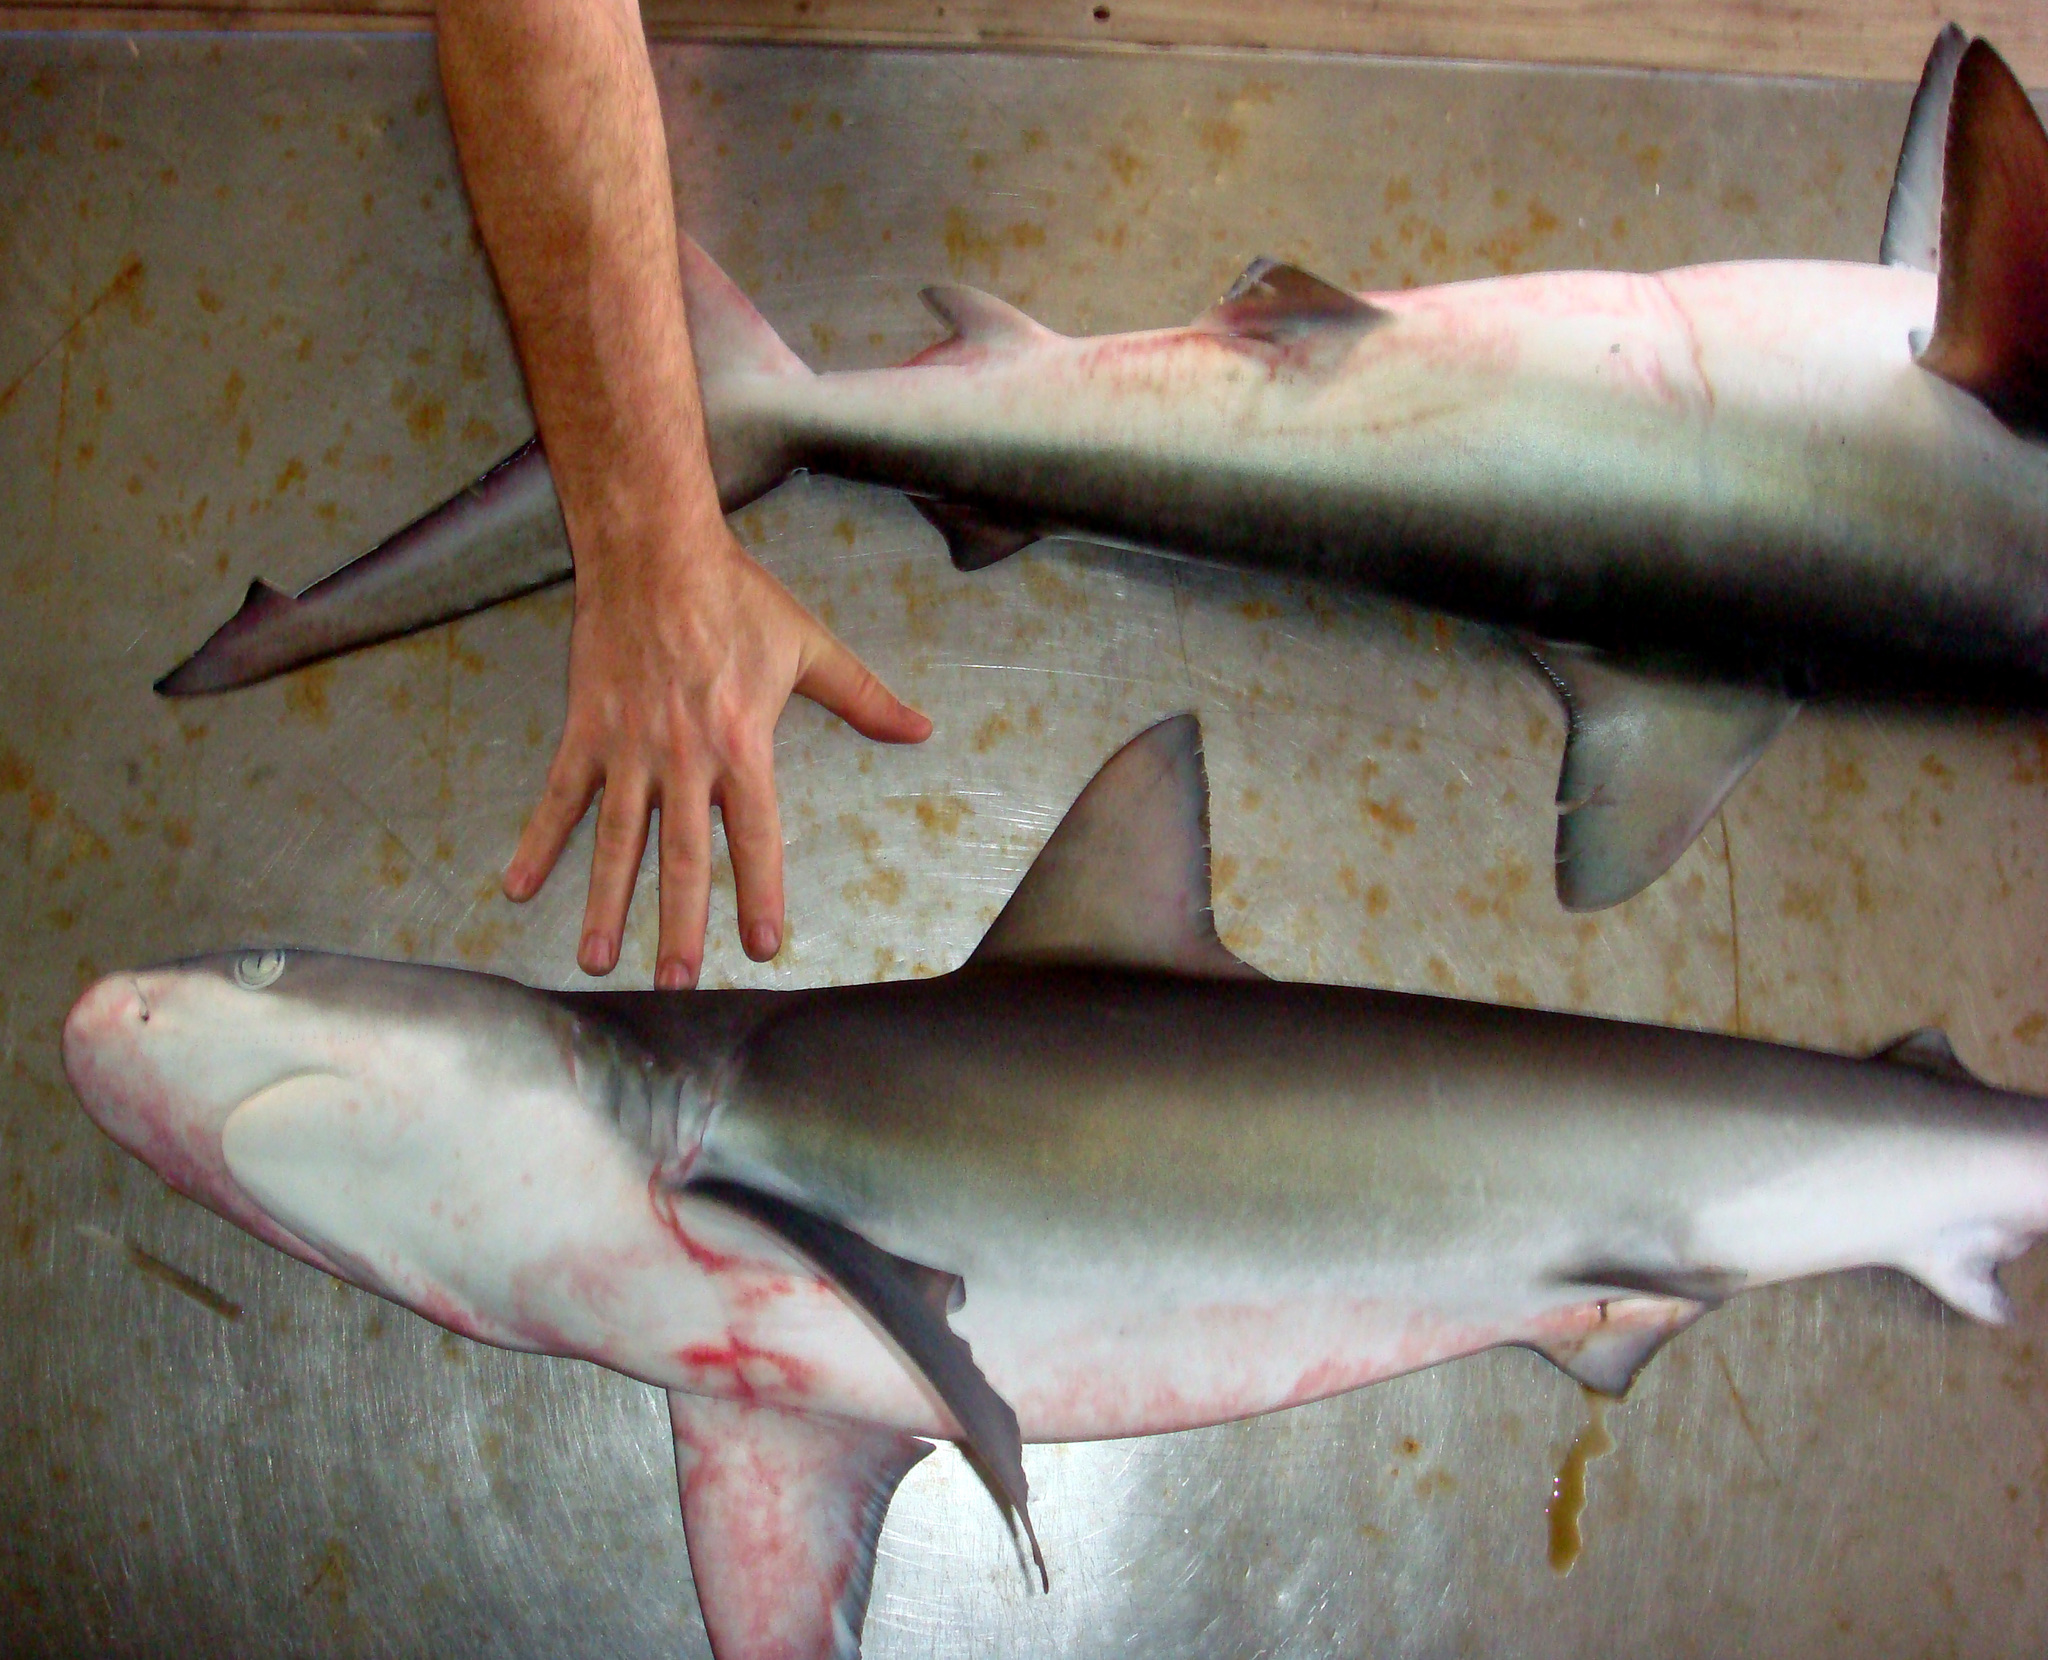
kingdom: Animalia
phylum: Chordata
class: Elasmobranchii
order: Carcharhiniformes
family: Carcharhinidae
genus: Carcharhinus
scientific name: Carcharhinus galapagensis
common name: Galapagos shark
